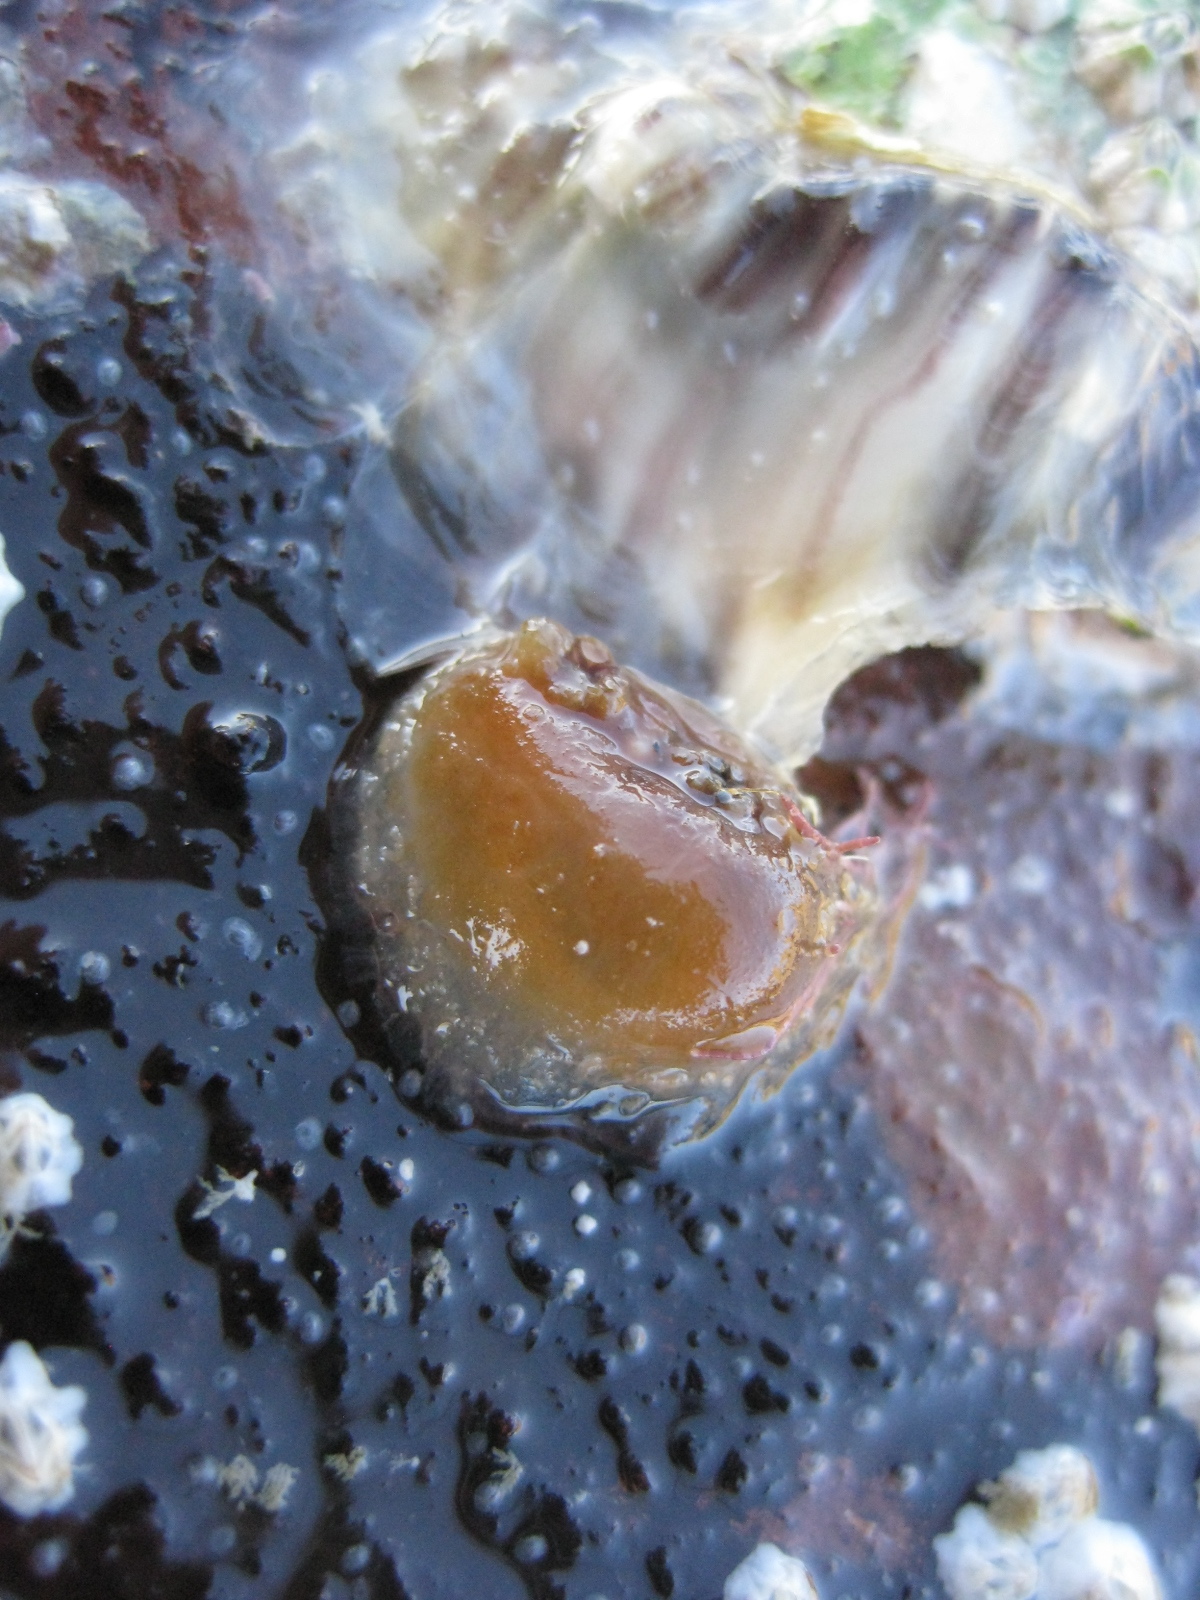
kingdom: Animalia
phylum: Chordata
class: Ascidiacea
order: Phlebobranchia
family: Corellidae
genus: Corella
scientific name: Corella eumyota
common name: Orange-tipped sea squirt
